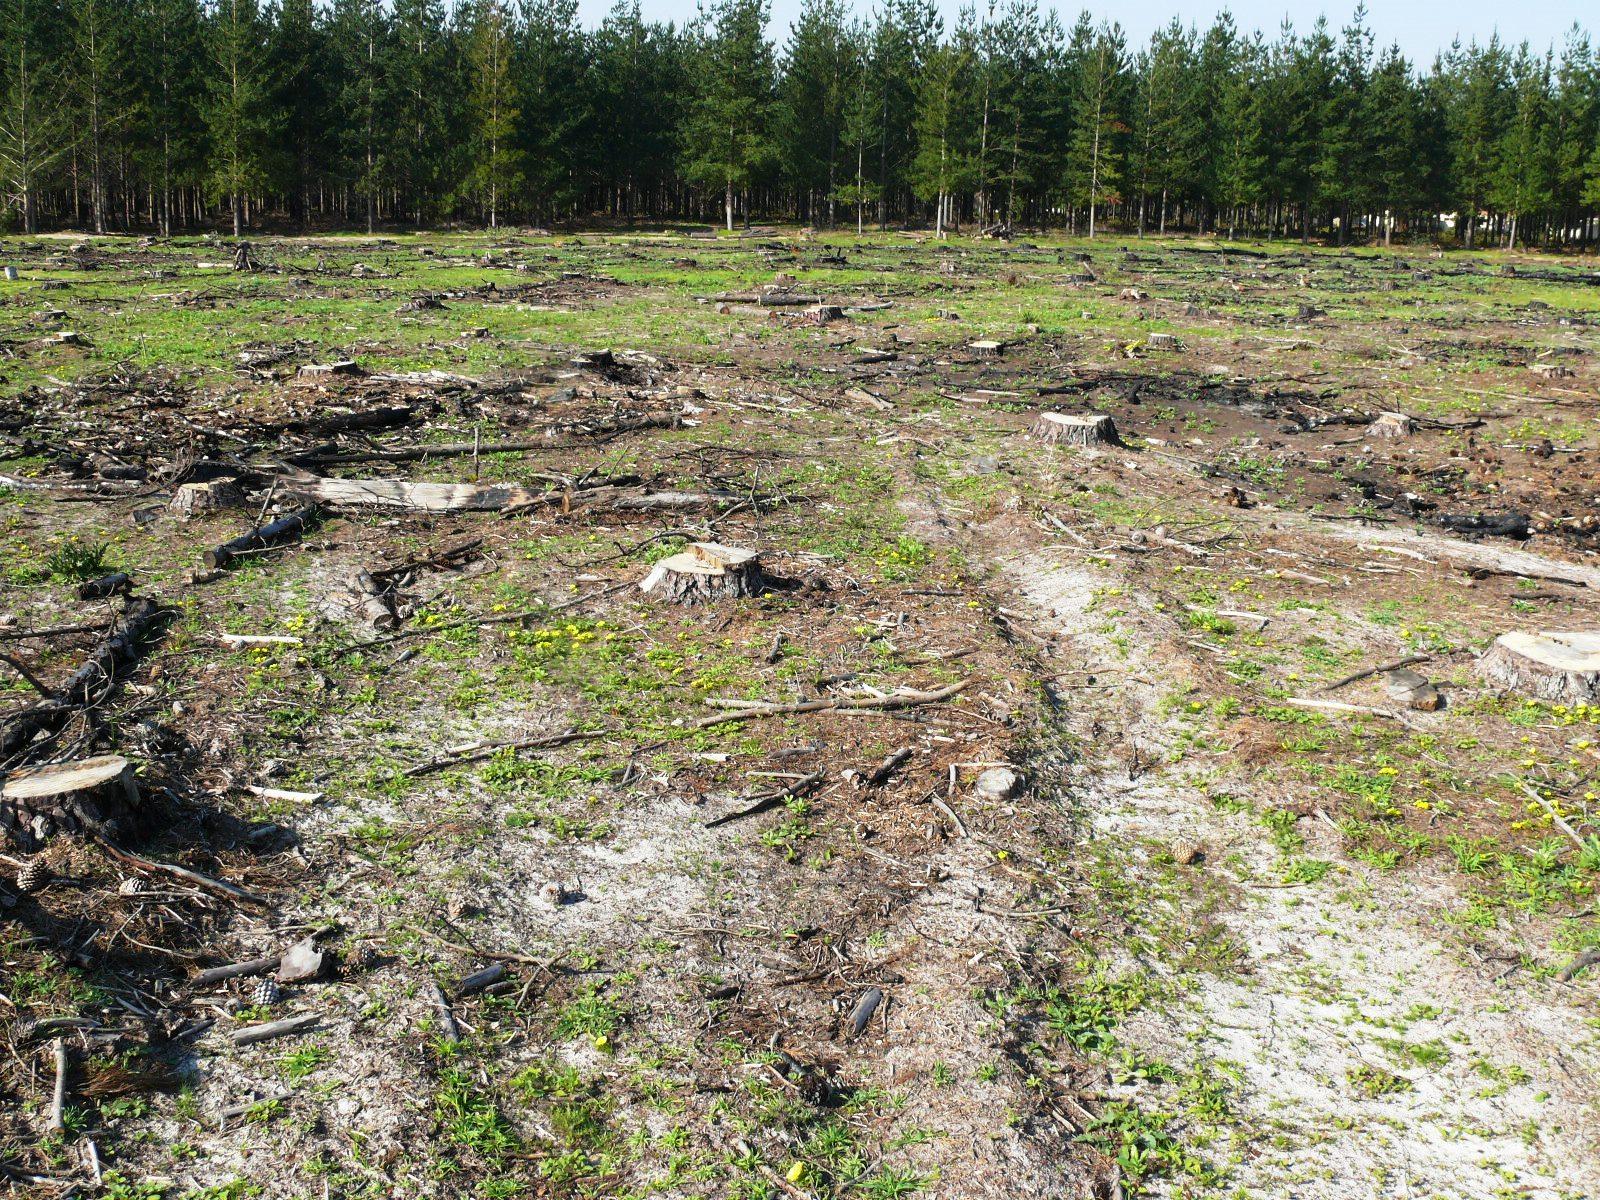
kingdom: Plantae
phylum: Tracheophyta
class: Magnoliopsida
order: Oxalidales
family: Oxalidaceae
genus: Oxalis
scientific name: Oxalis luteola
